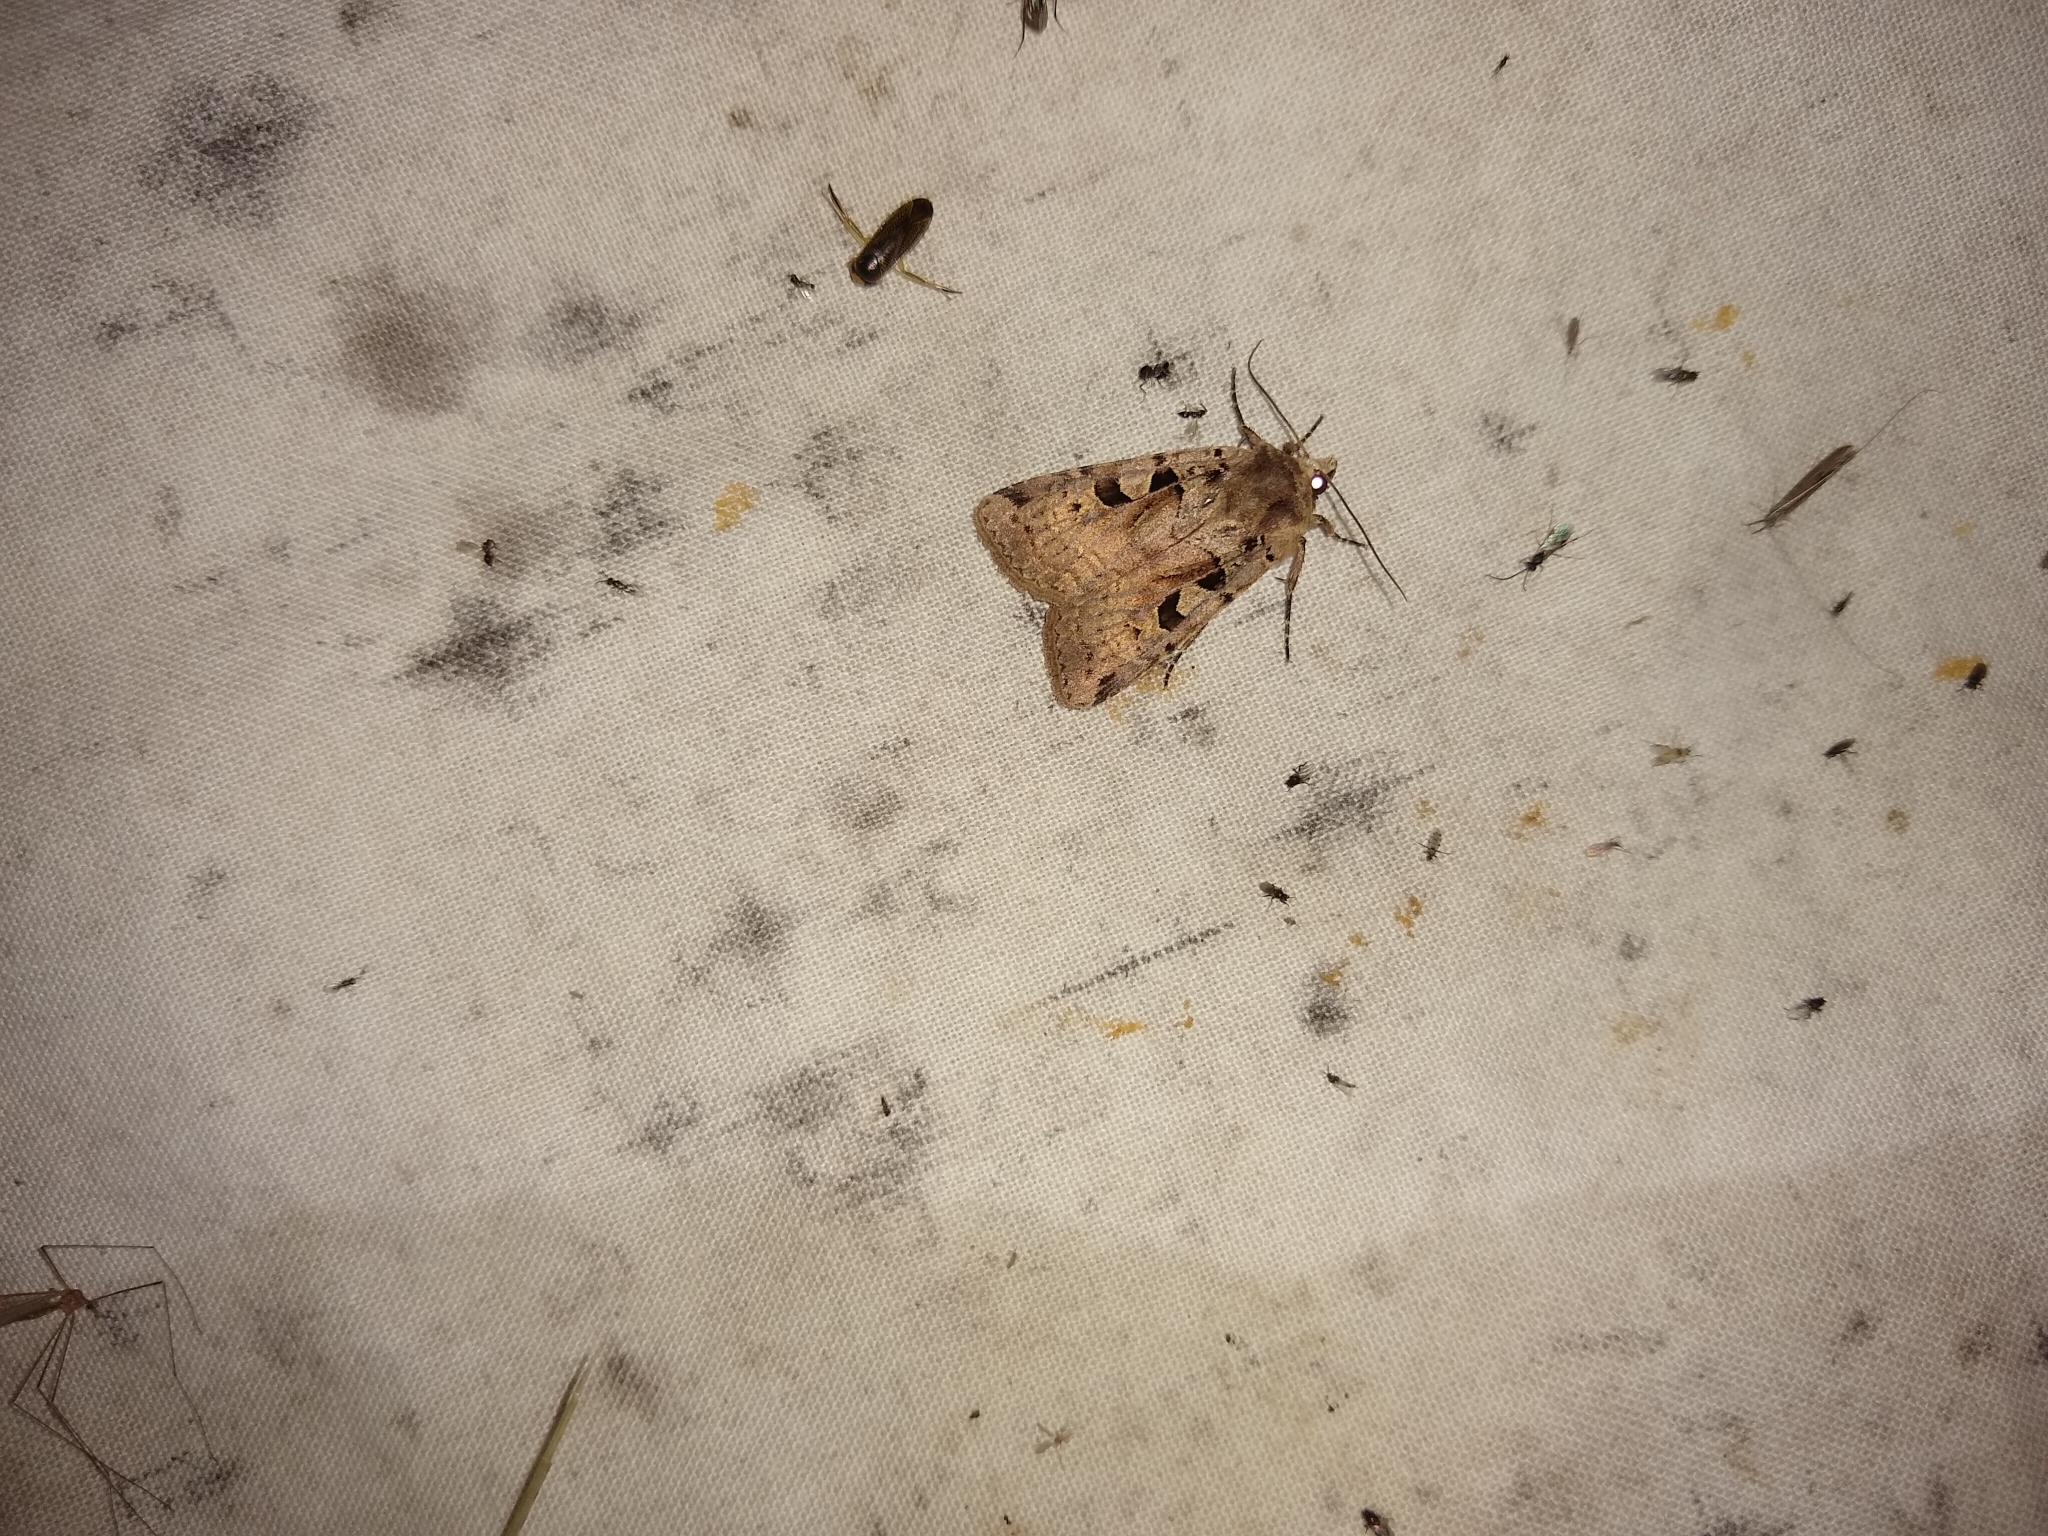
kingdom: Animalia
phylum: Arthropoda
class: Insecta
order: Lepidoptera
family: Noctuidae
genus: Xestia
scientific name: Xestia triangulum
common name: Double square-spot
